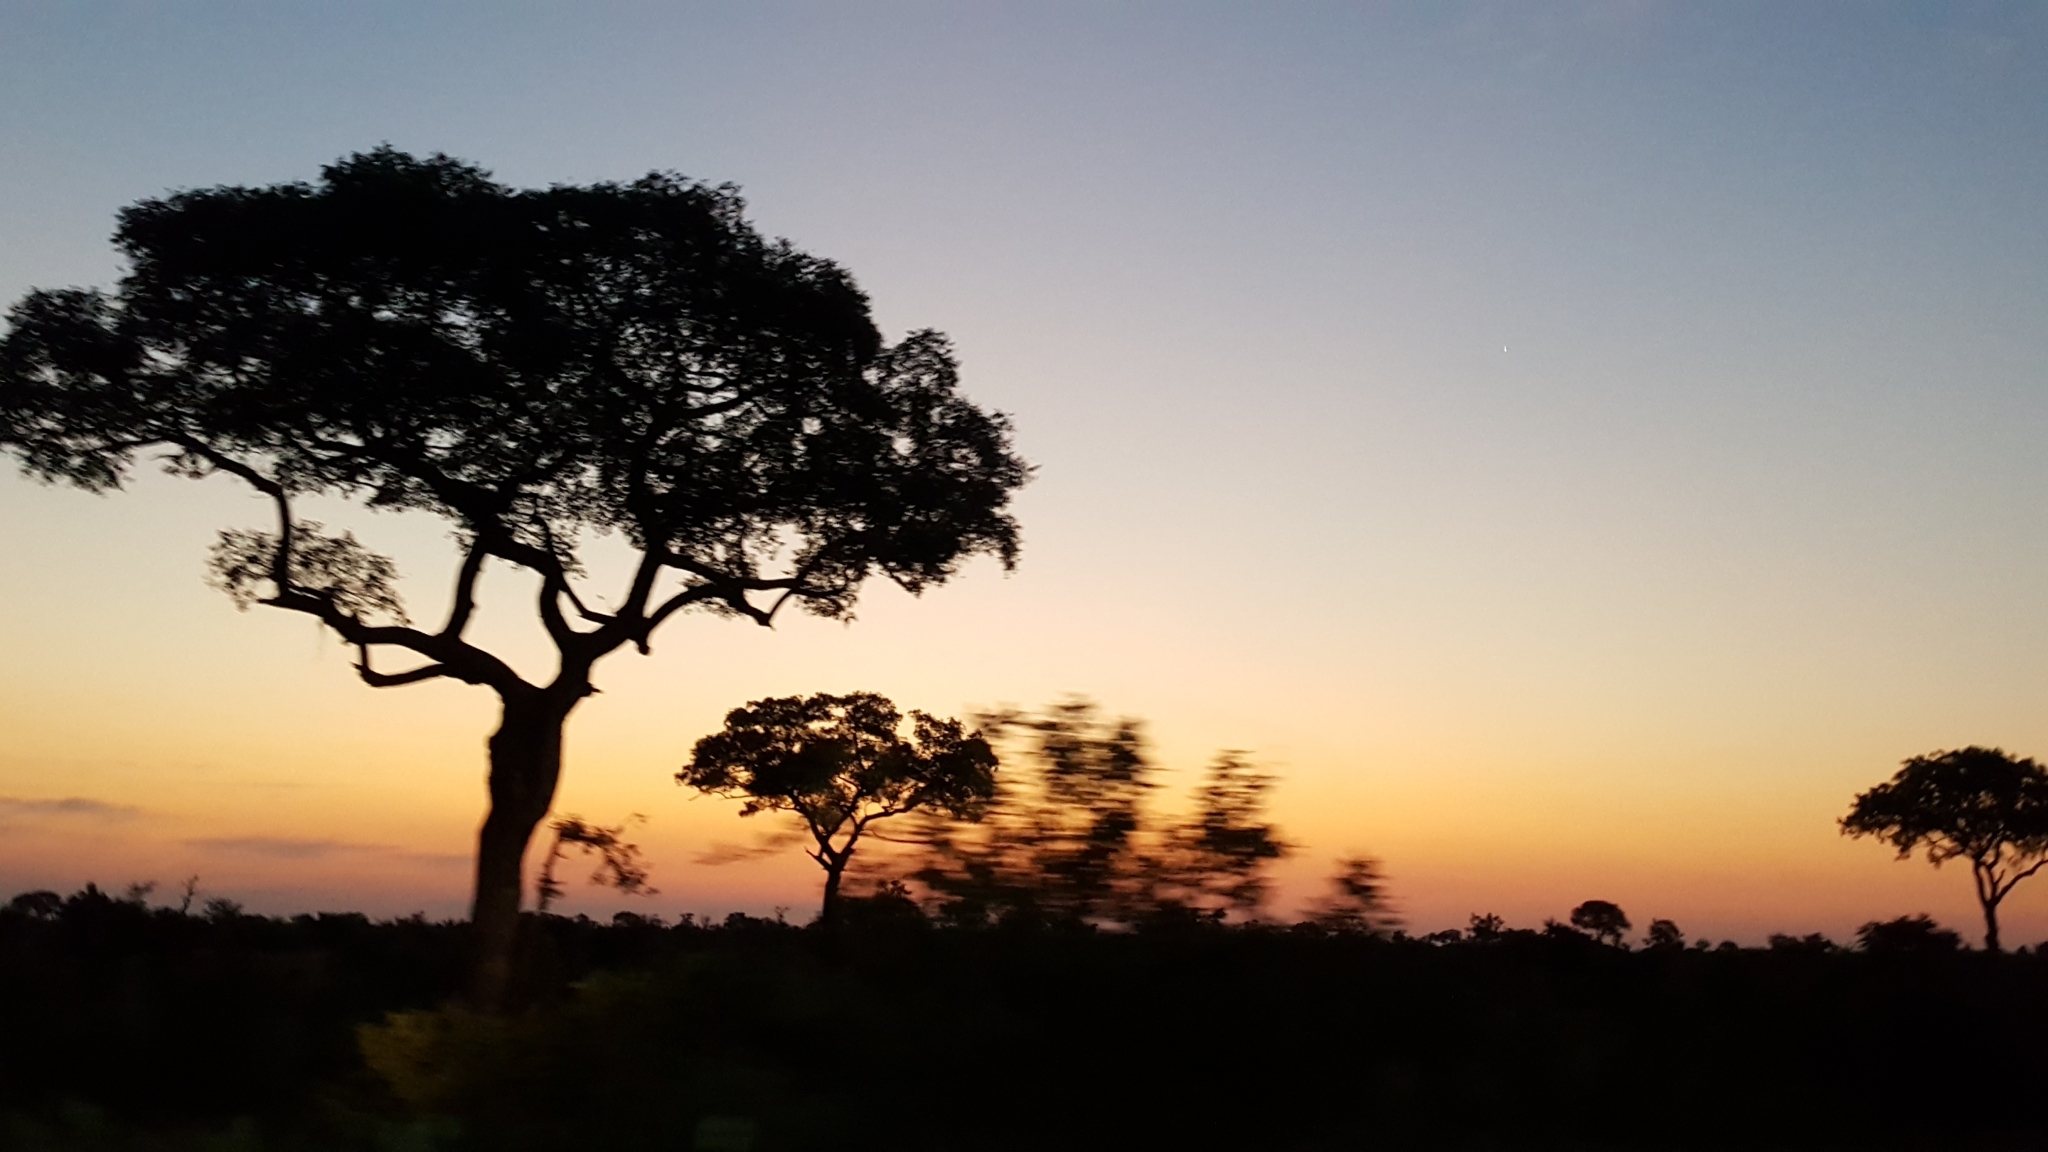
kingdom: Plantae
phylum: Tracheophyta
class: Magnoliopsida
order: Sapindales
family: Anacardiaceae
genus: Sclerocarya
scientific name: Sclerocarya birrea
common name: Marula
